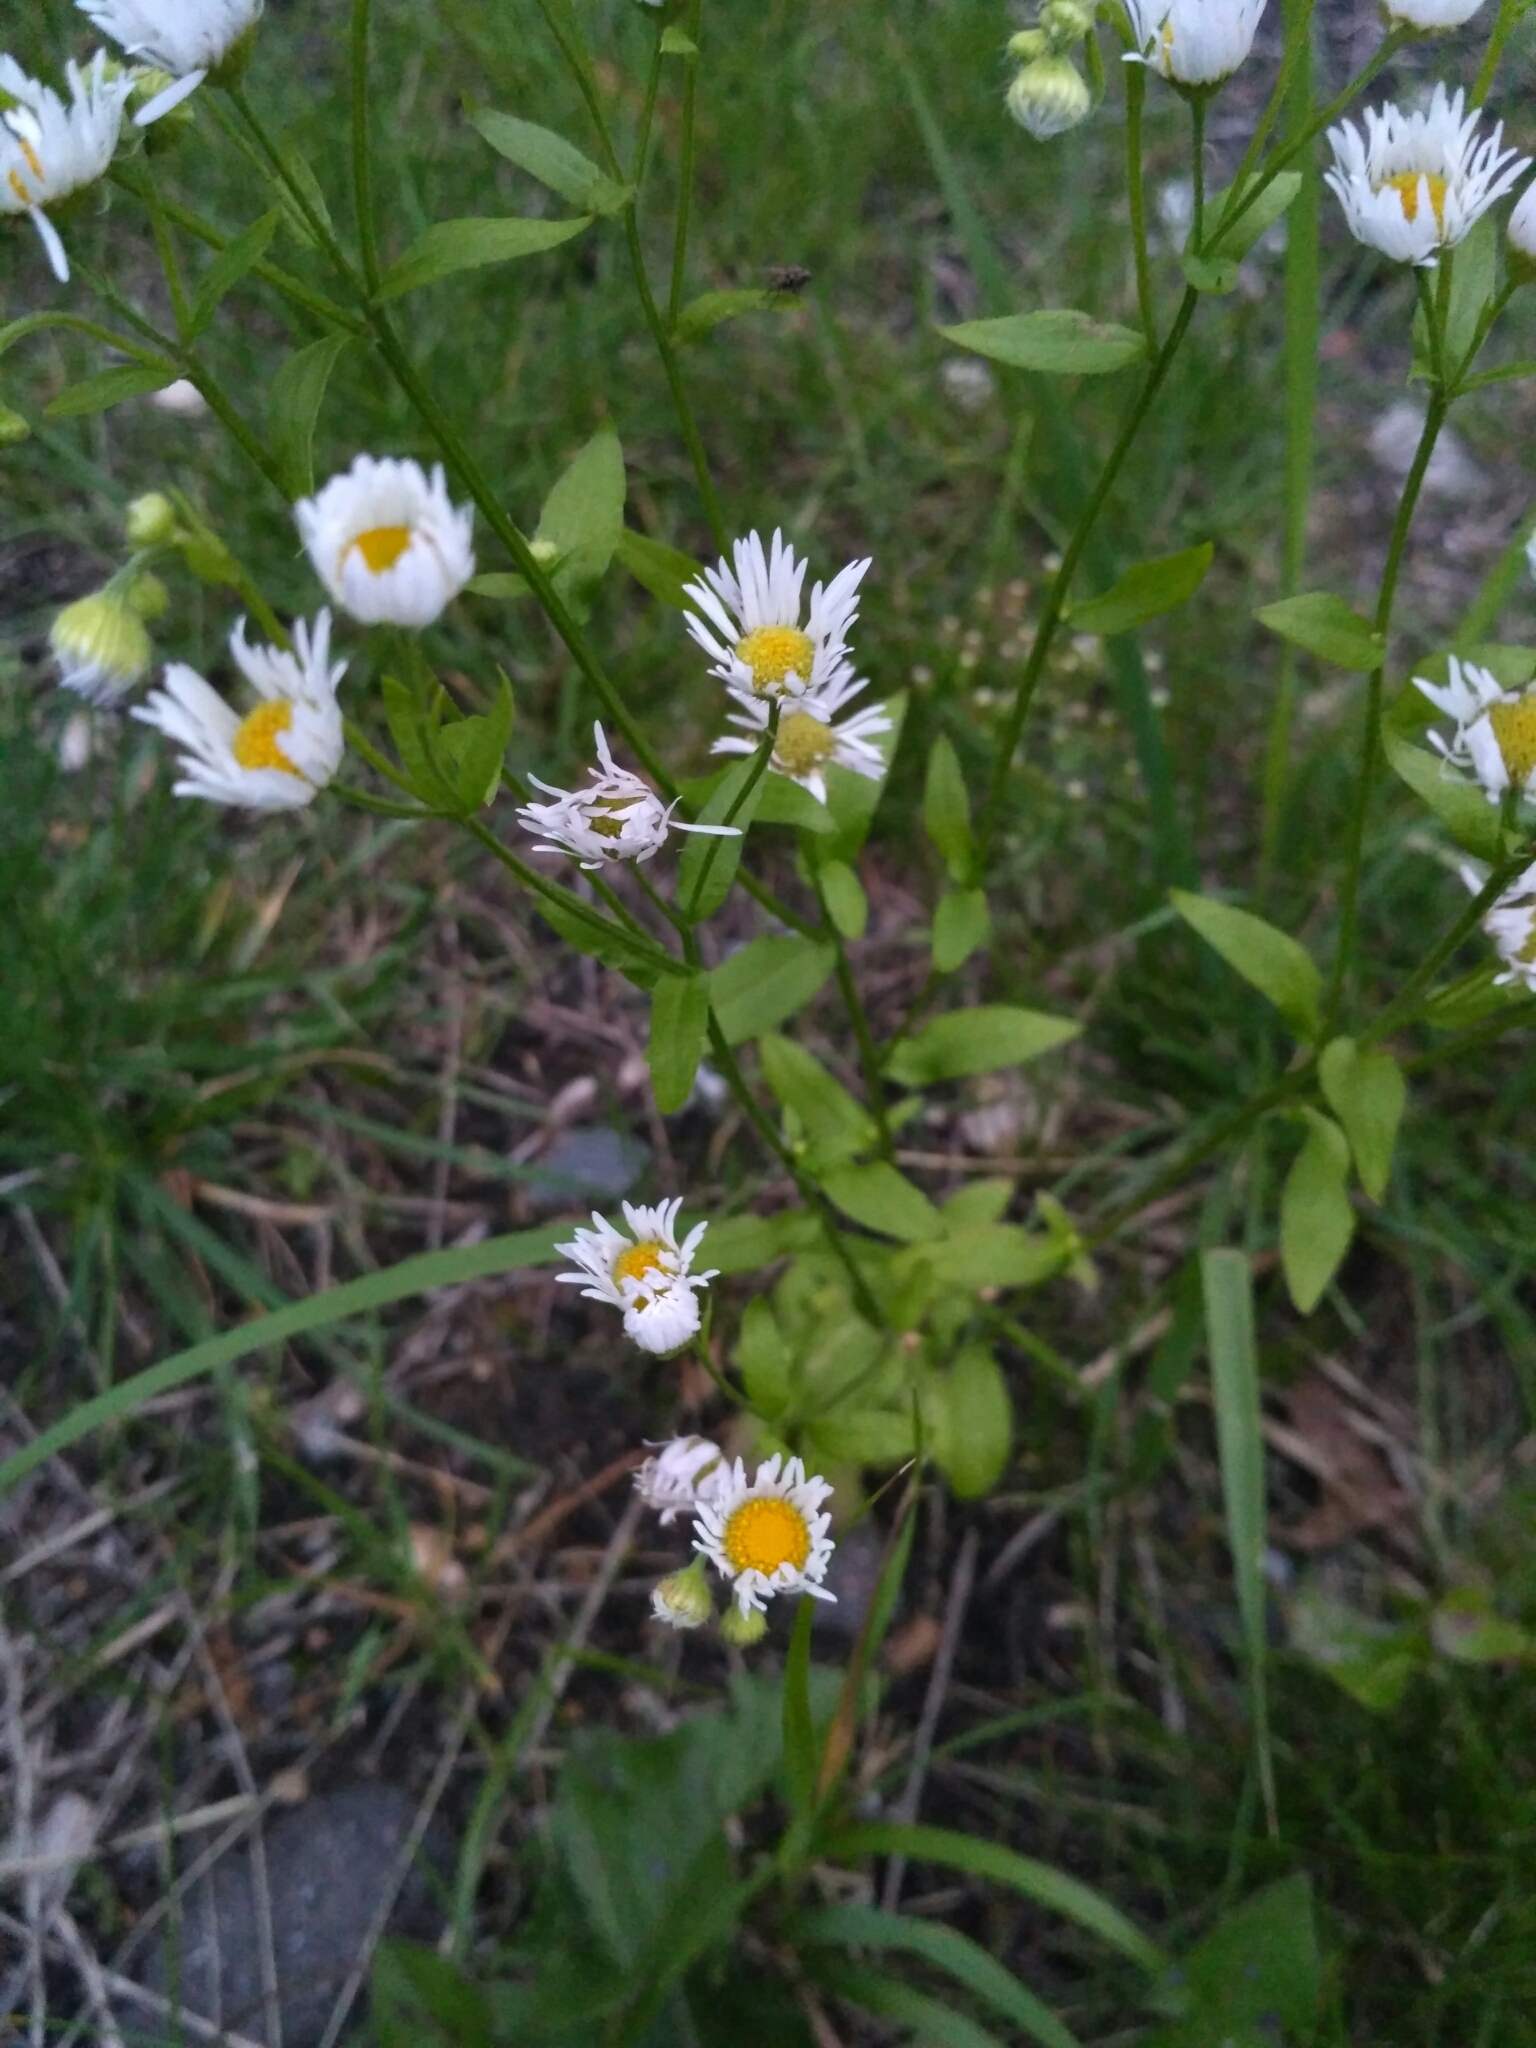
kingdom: Plantae
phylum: Tracheophyta
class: Magnoliopsida
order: Asterales
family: Asteraceae
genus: Erigeron
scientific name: Erigeron annuus
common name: Tall fleabane
